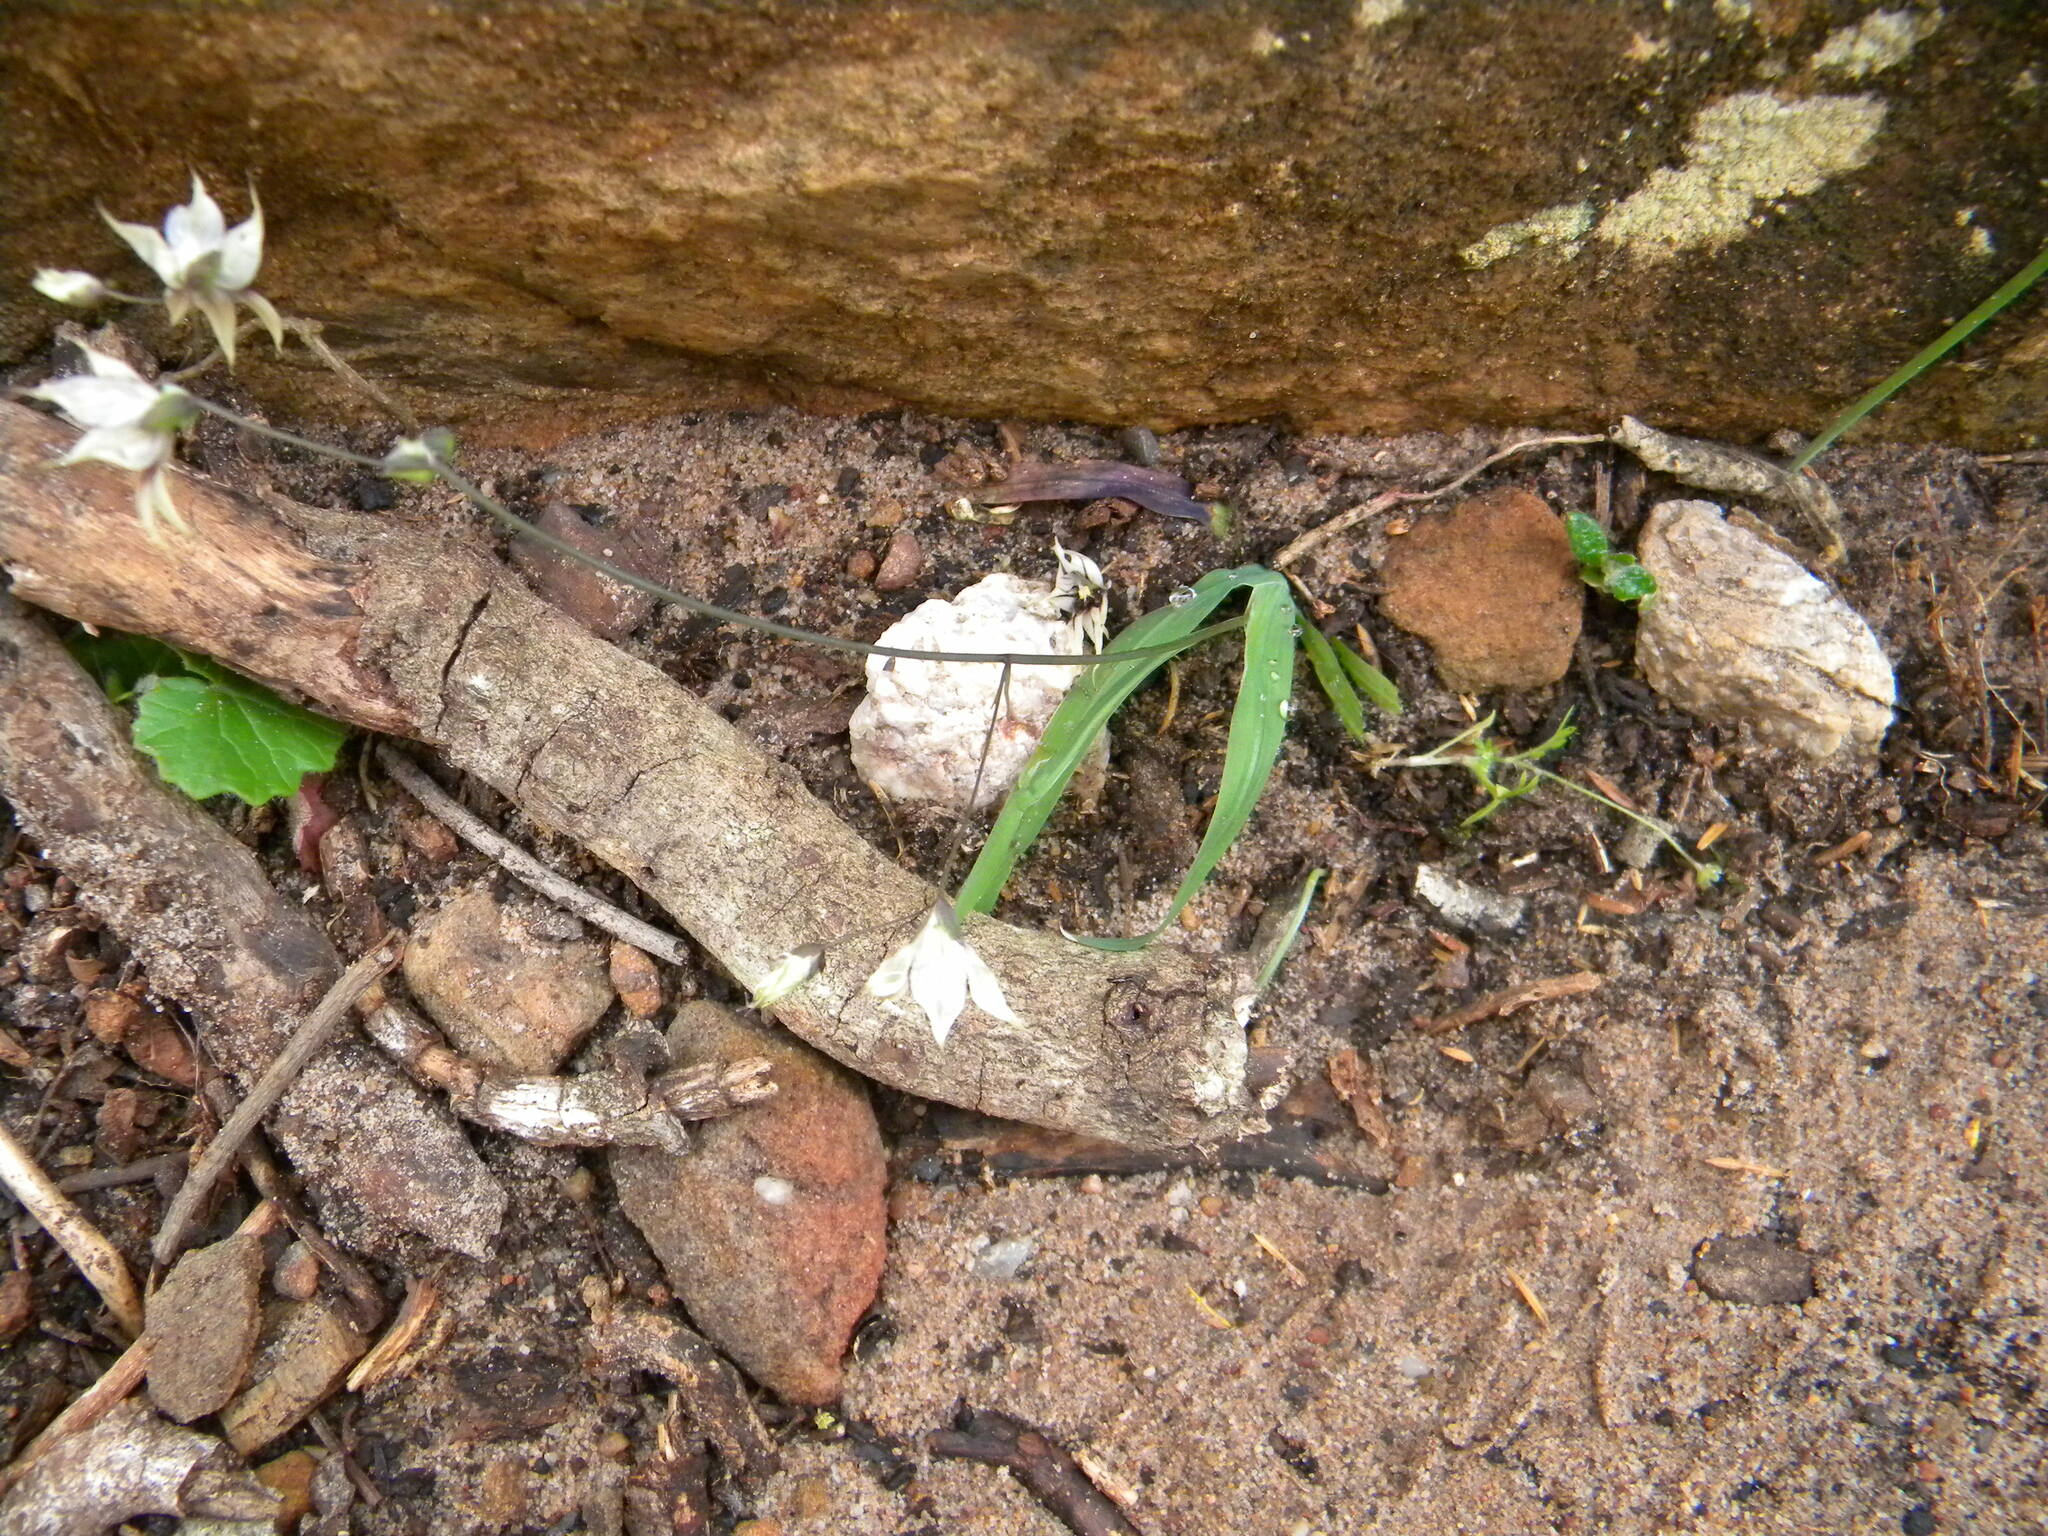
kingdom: Plantae
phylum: Tracheophyta
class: Liliopsida
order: Asparagales
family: Iridaceae
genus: Melasphaerula
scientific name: Melasphaerula graminea
